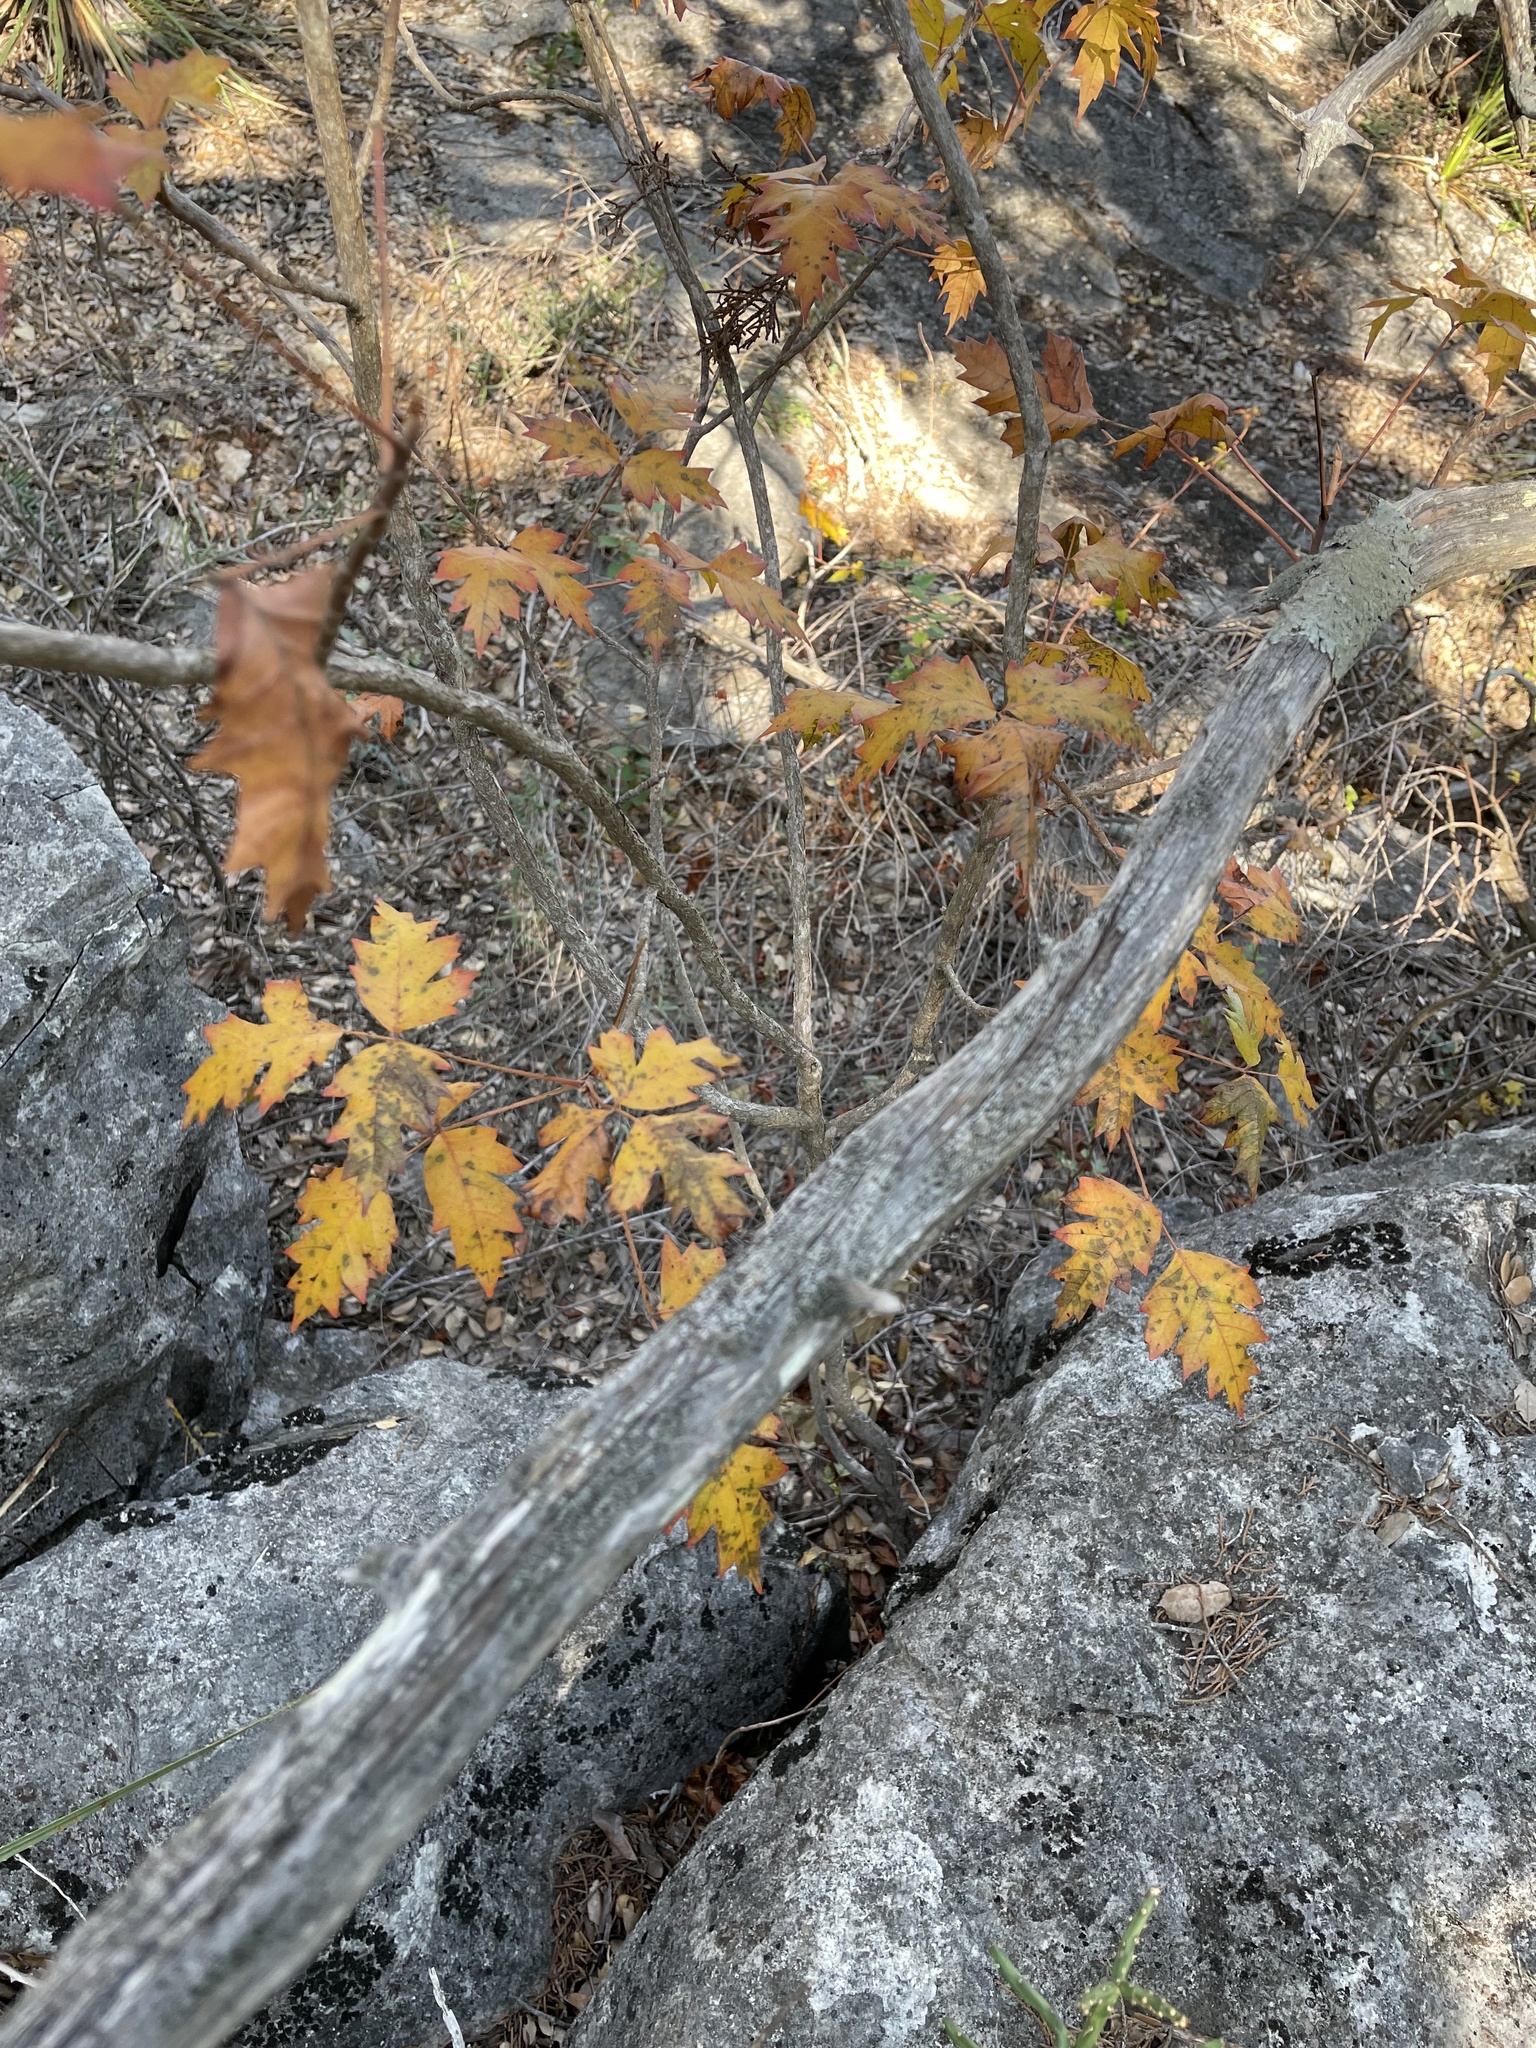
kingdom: Plantae
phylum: Tracheophyta
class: Magnoliopsida
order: Sapindales
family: Anacardiaceae
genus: Toxicodendron
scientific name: Toxicodendron radicans
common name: Poison ivy
